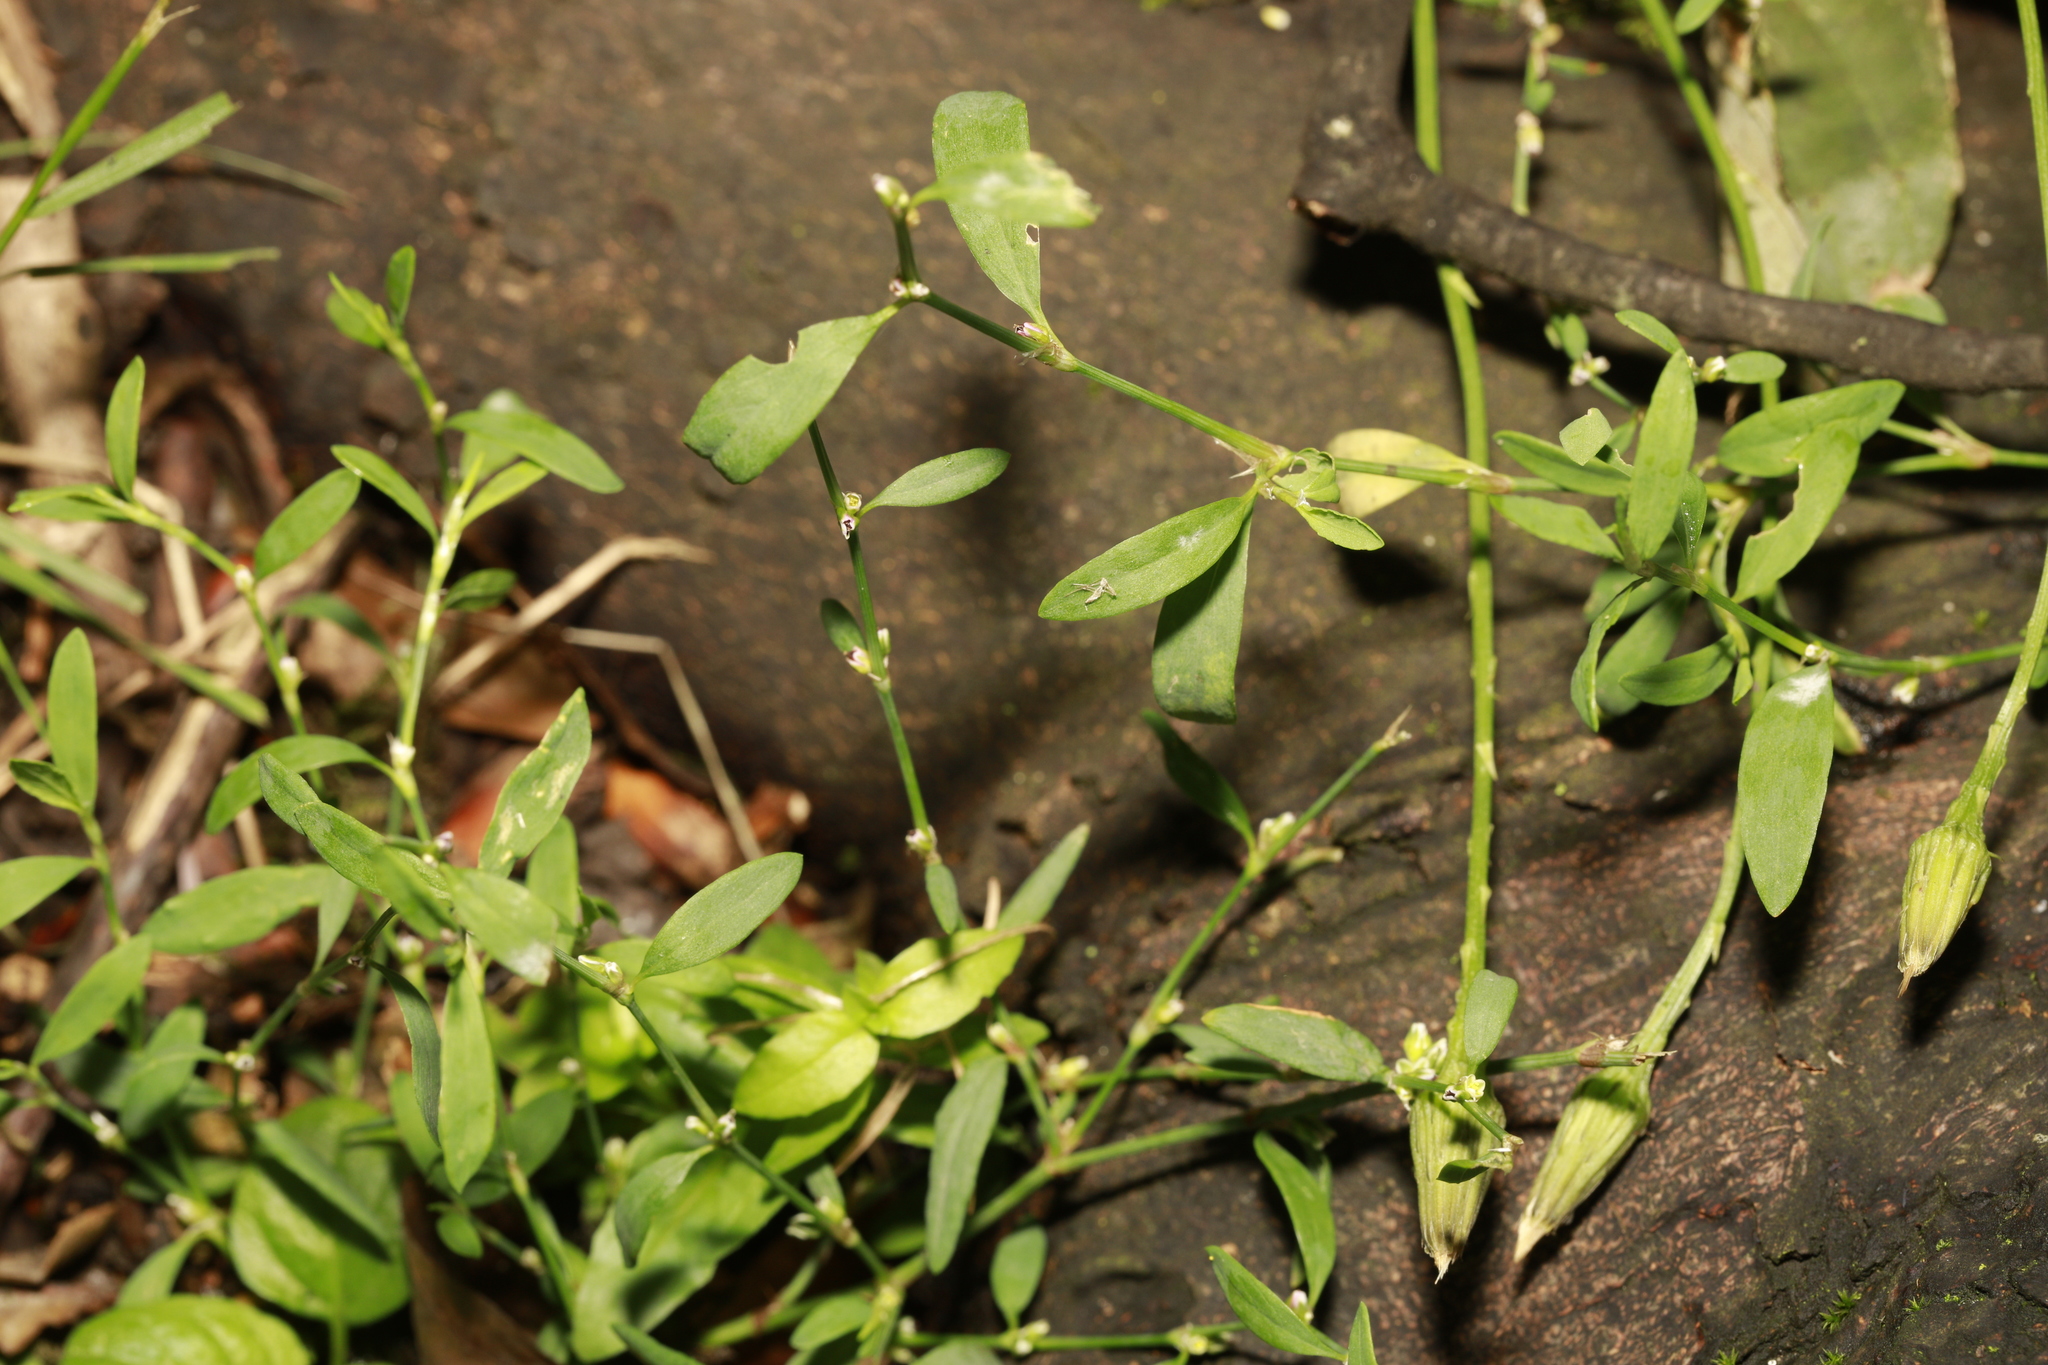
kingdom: Plantae
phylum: Tracheophyta
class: Magnoliopsida
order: Caryophyllales
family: Polygonaceae
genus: Polygonum
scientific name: Polygonum aviculare
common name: Prostrate knotweed
